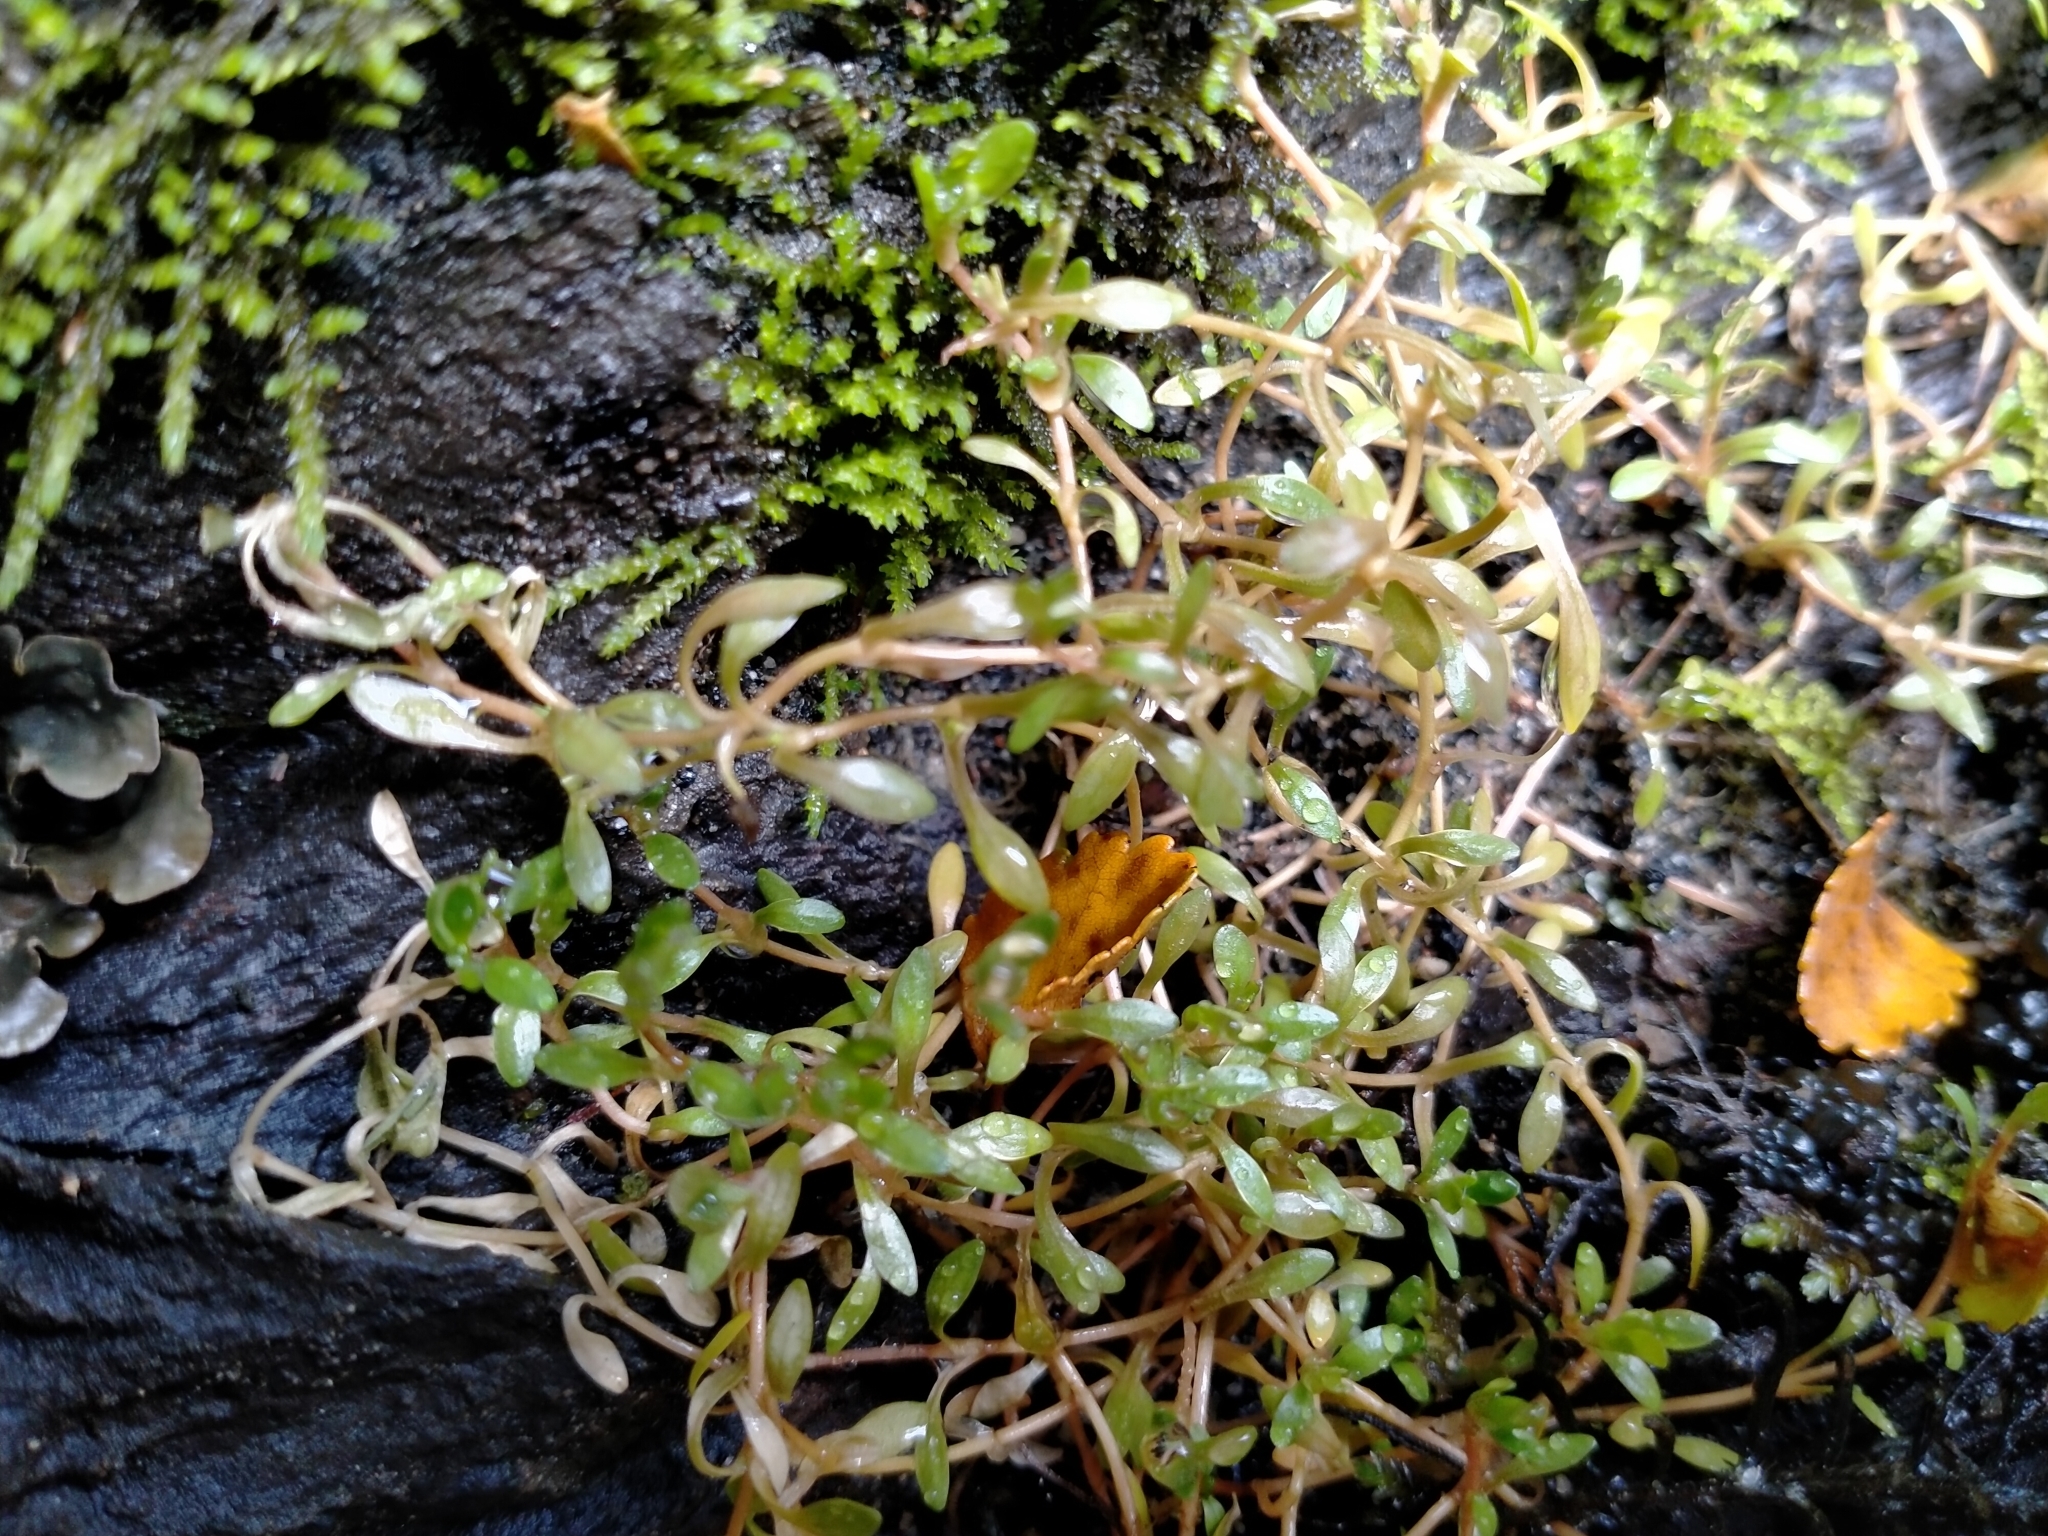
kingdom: Plantae
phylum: Tracheophyta
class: Magnoliopsida
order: Caryophyllales
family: Montiaceae
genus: Montia
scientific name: Montia fontana
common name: Blinks
